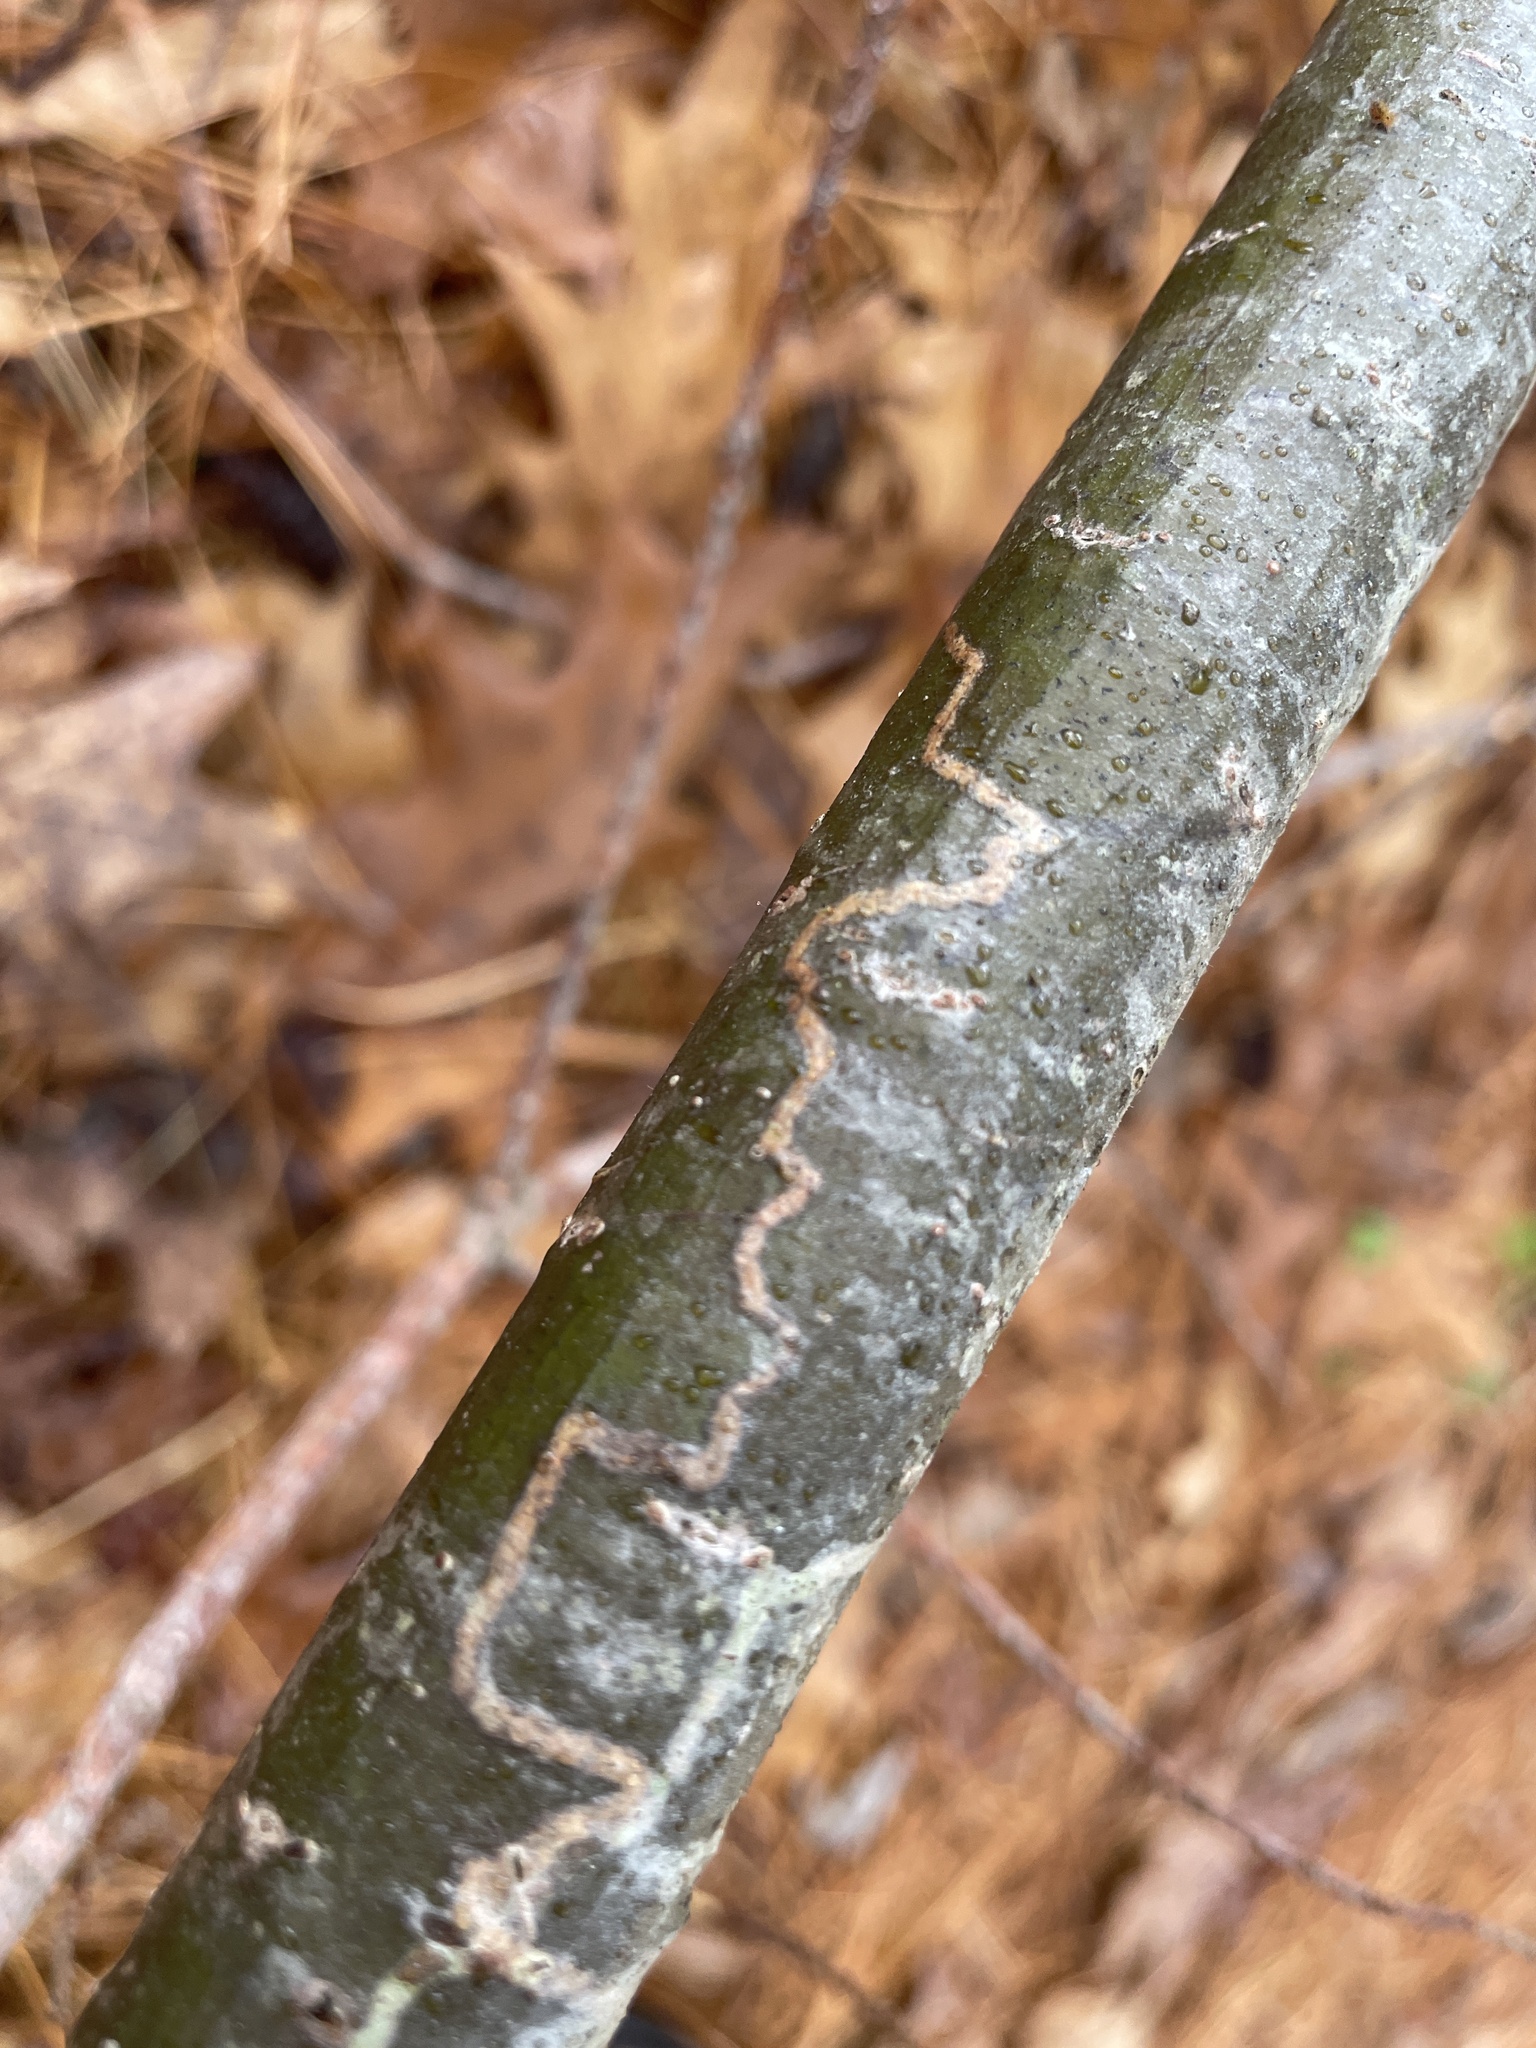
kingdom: Animalia
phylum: Arthropoda
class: Insecta
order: Lepidoptera
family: Gracillariidae
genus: Marmara
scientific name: Marmara fasciella
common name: White pine barkminer moth
